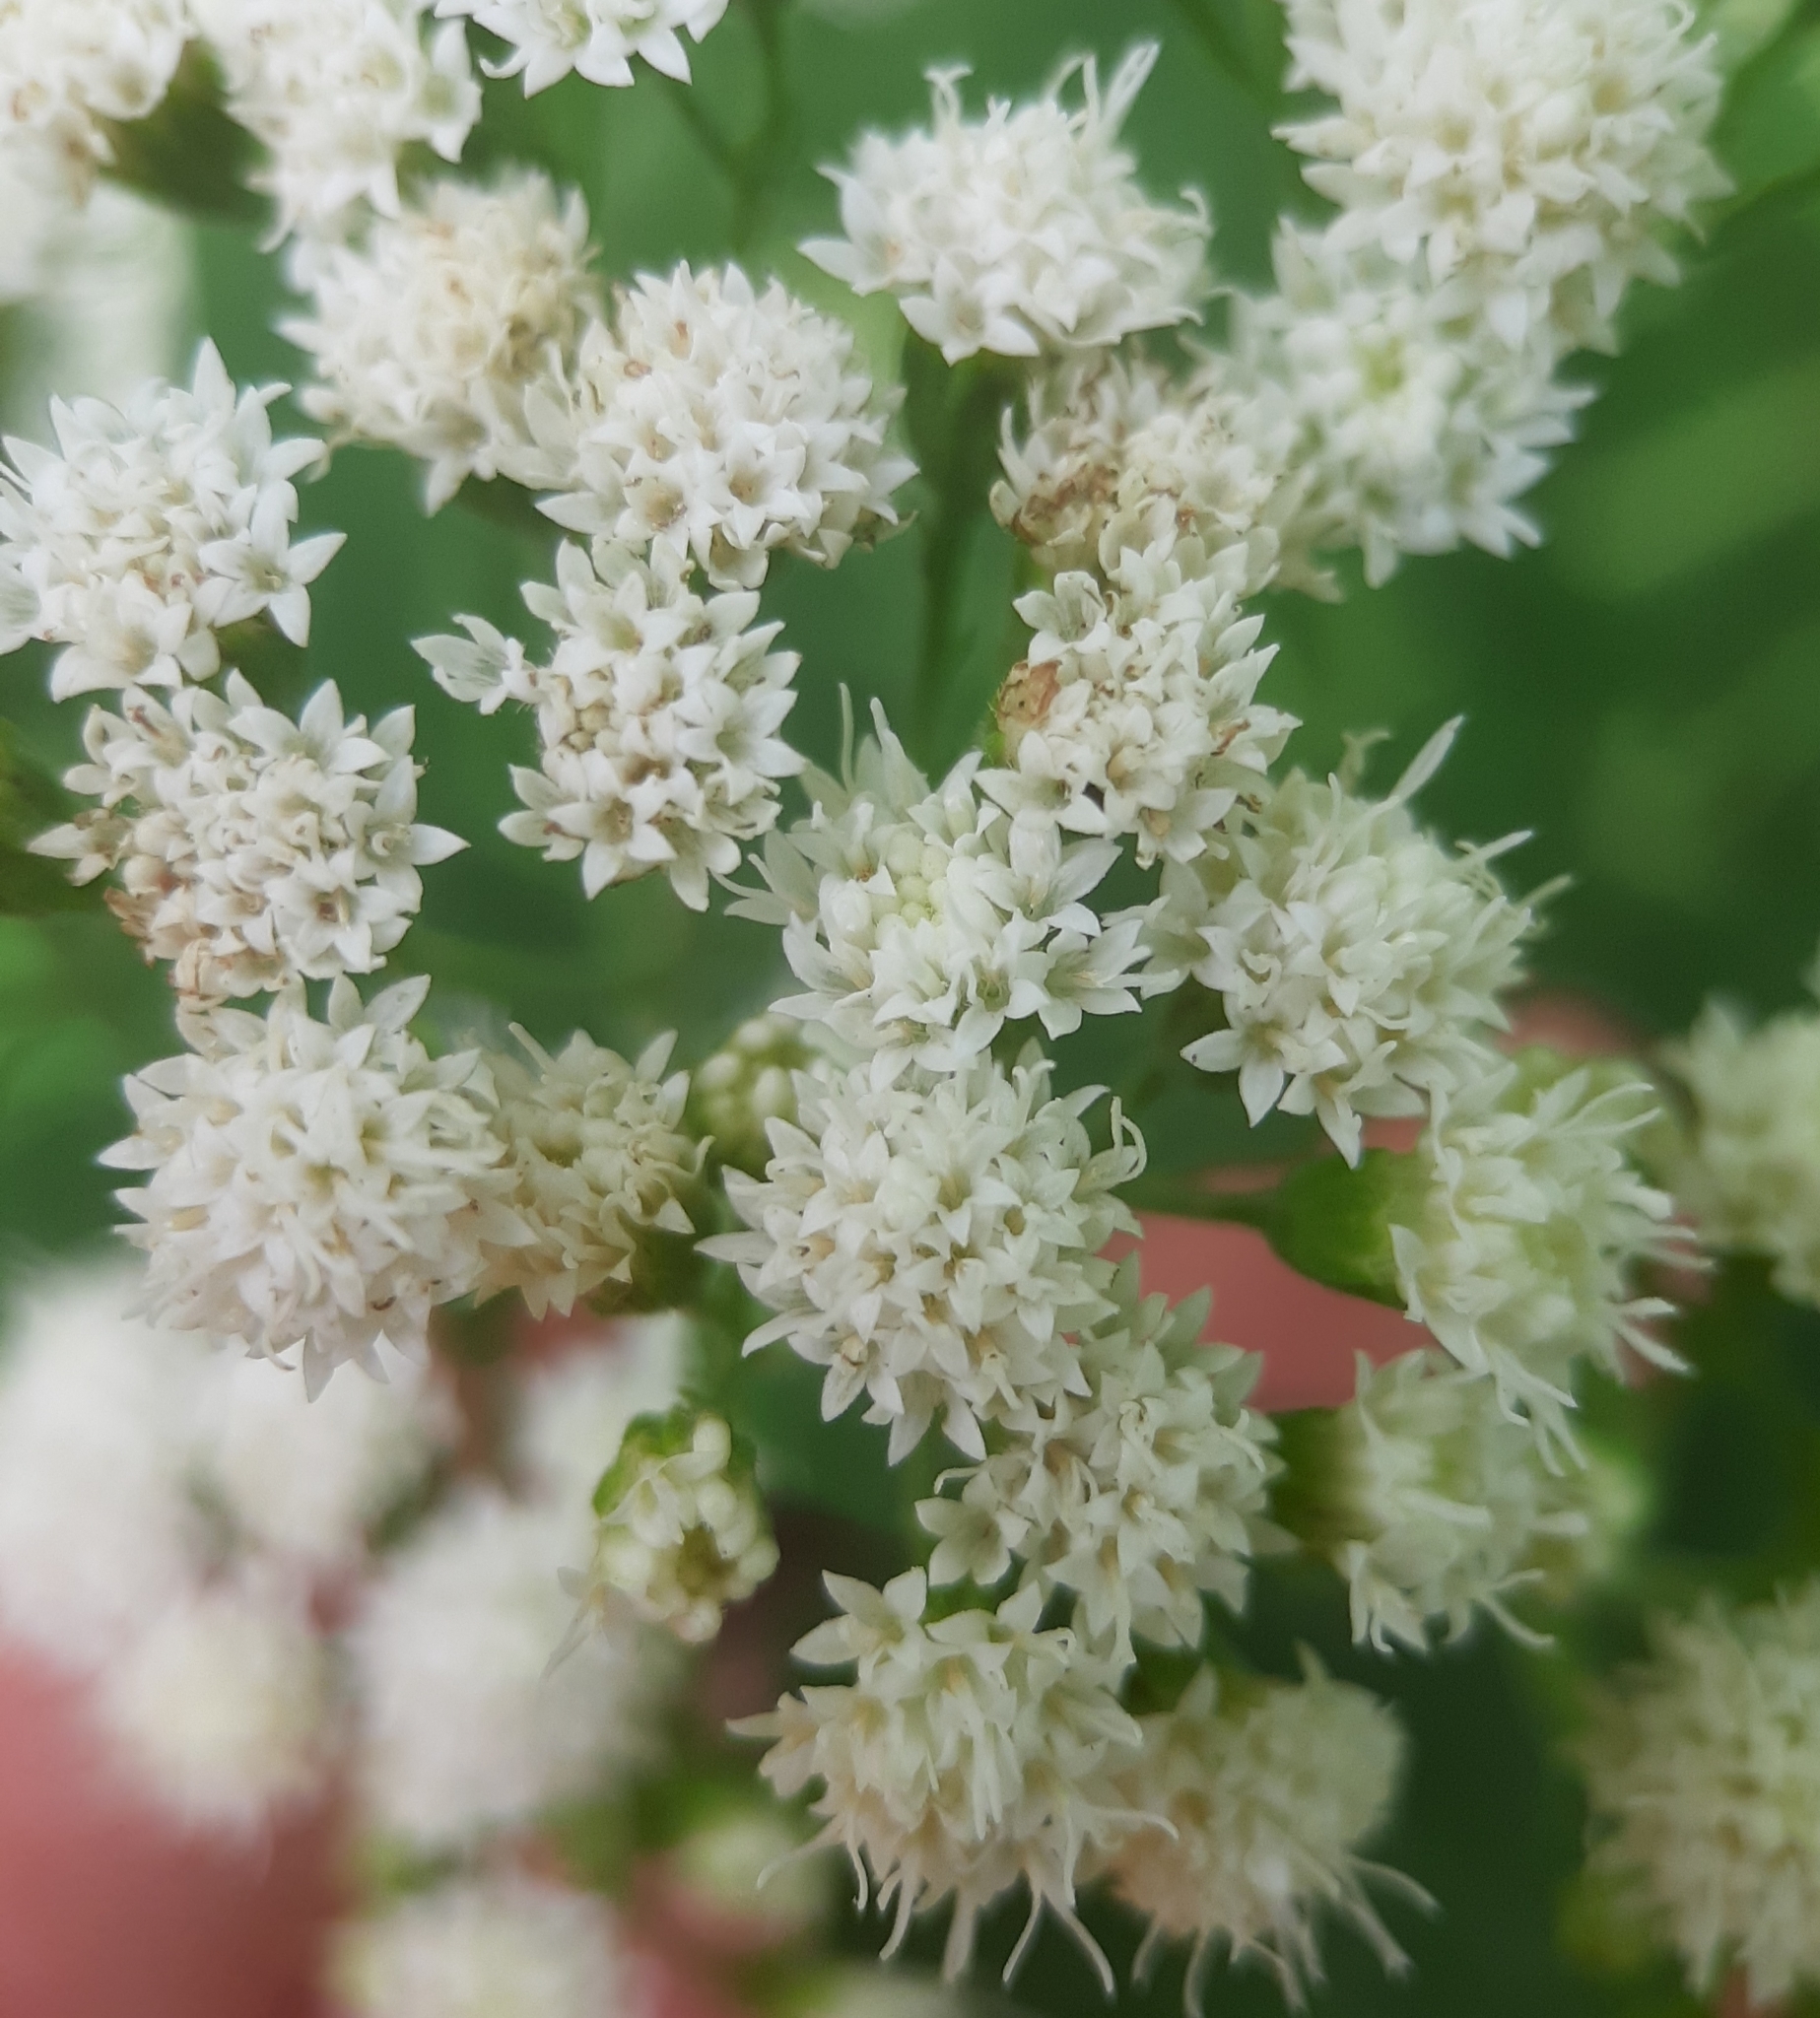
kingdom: Plantae
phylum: Tracheophyta
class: Magnoliopsida
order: Asterales
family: Asteraceae
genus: Ageratina
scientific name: Ageratina altissima
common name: White snakeroot
